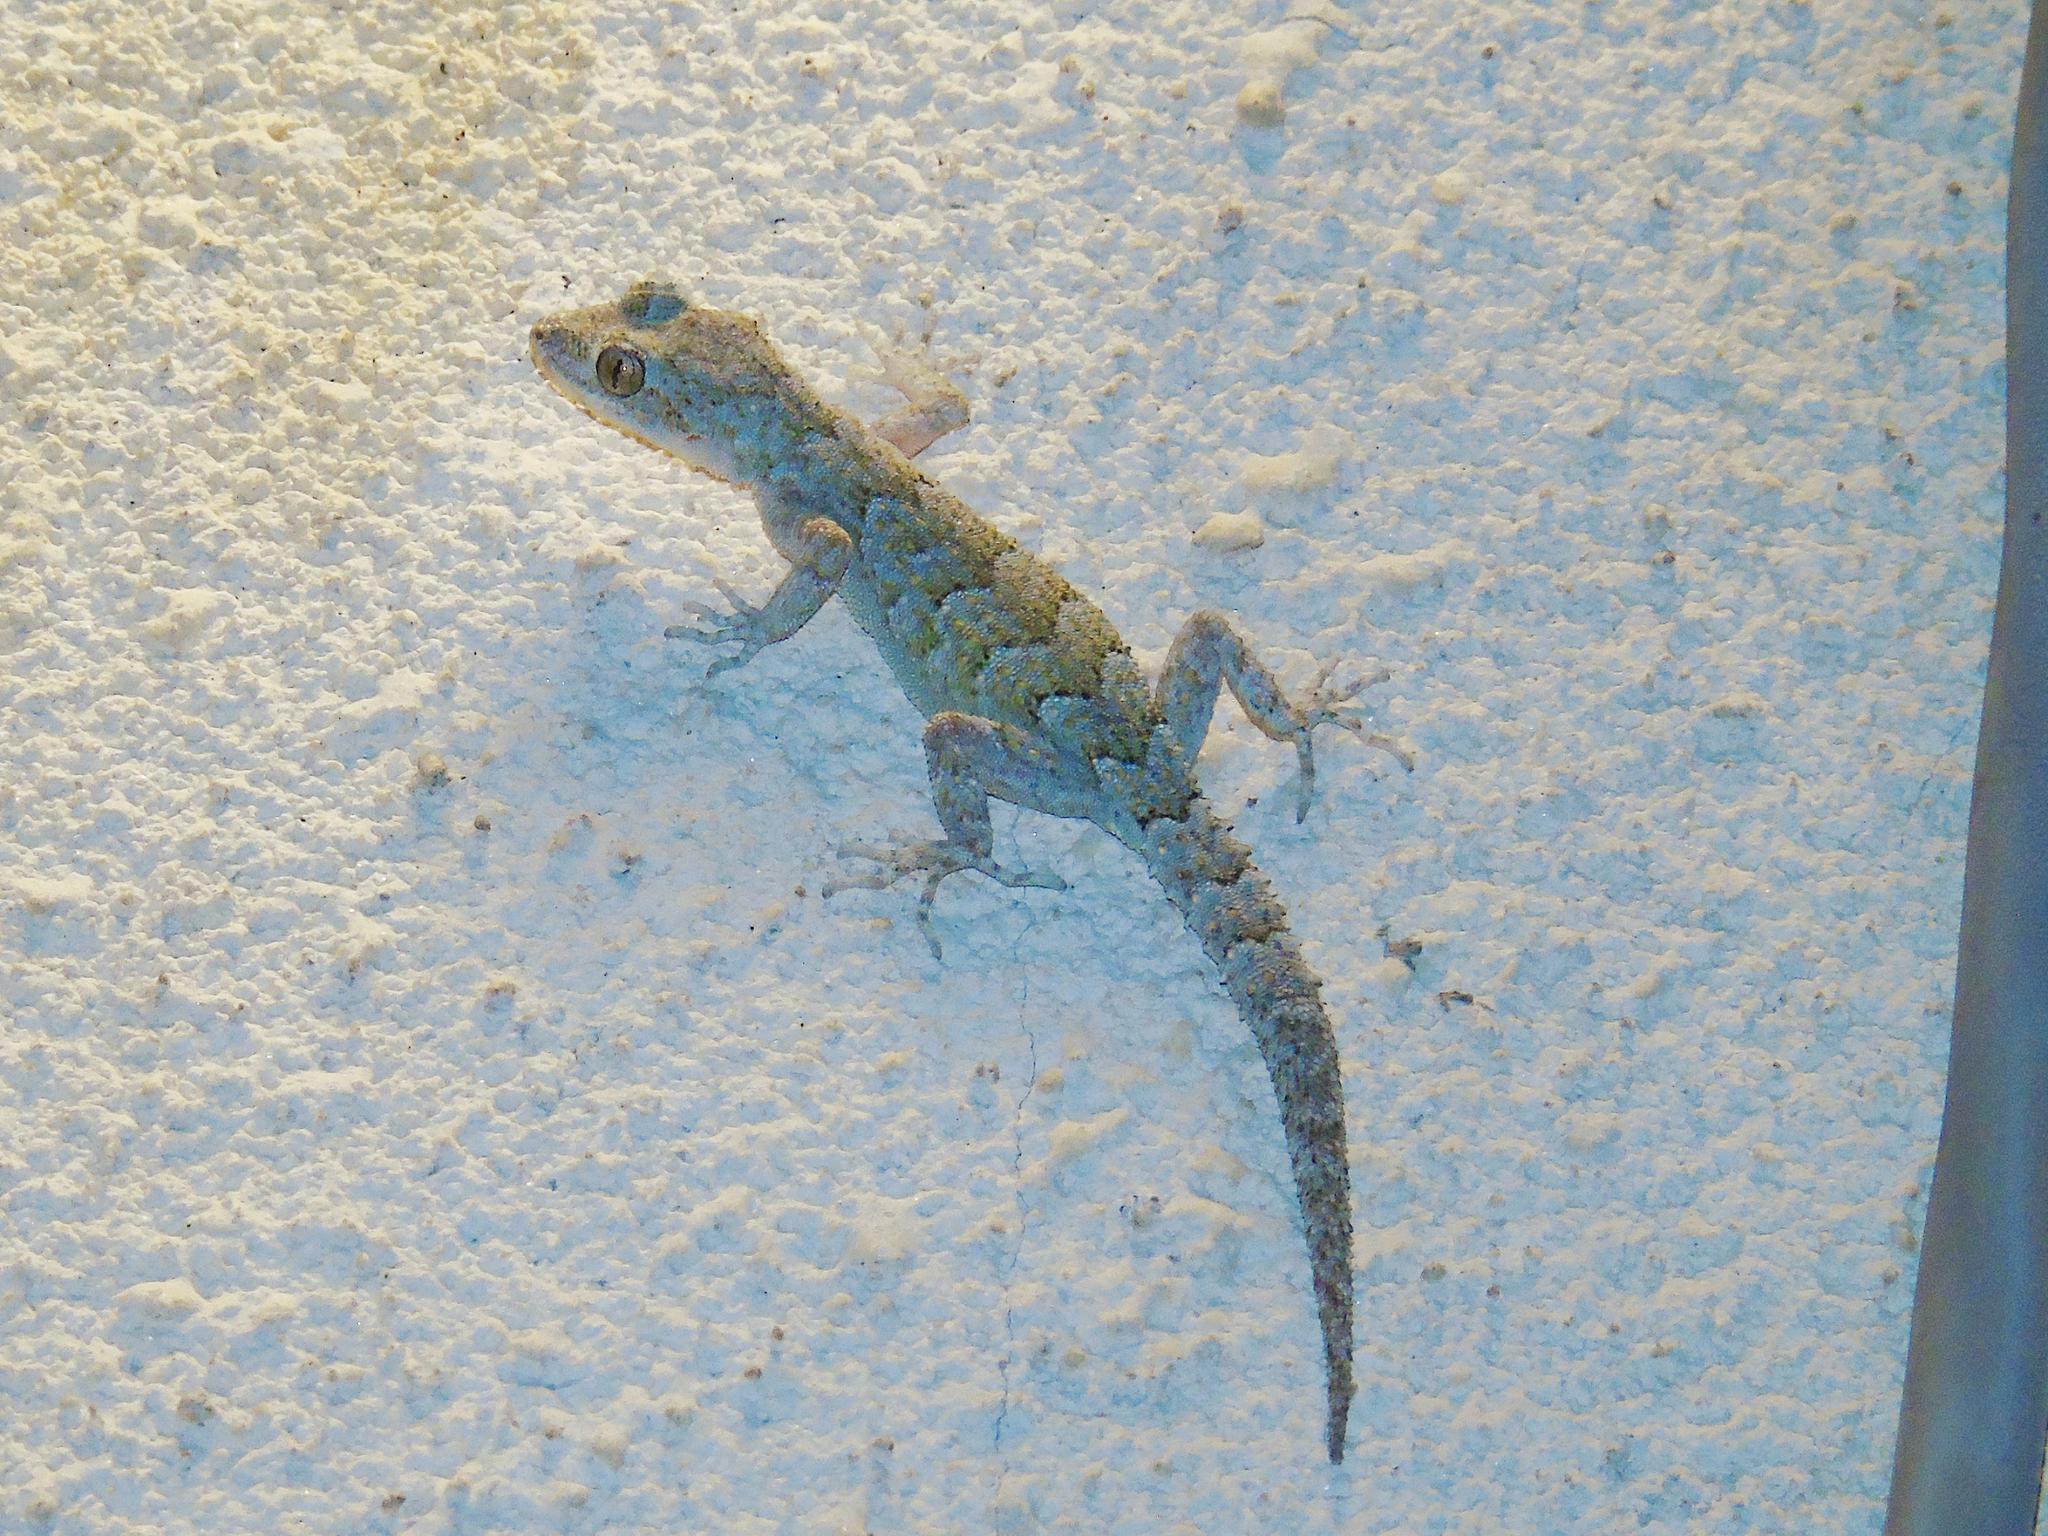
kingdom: Animalia
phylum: Chordata
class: Squamata
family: Gekkonidae
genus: Mediodactylus
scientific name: Mediodactylus danilewskii
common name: Bulgarian bent-toed gecko
